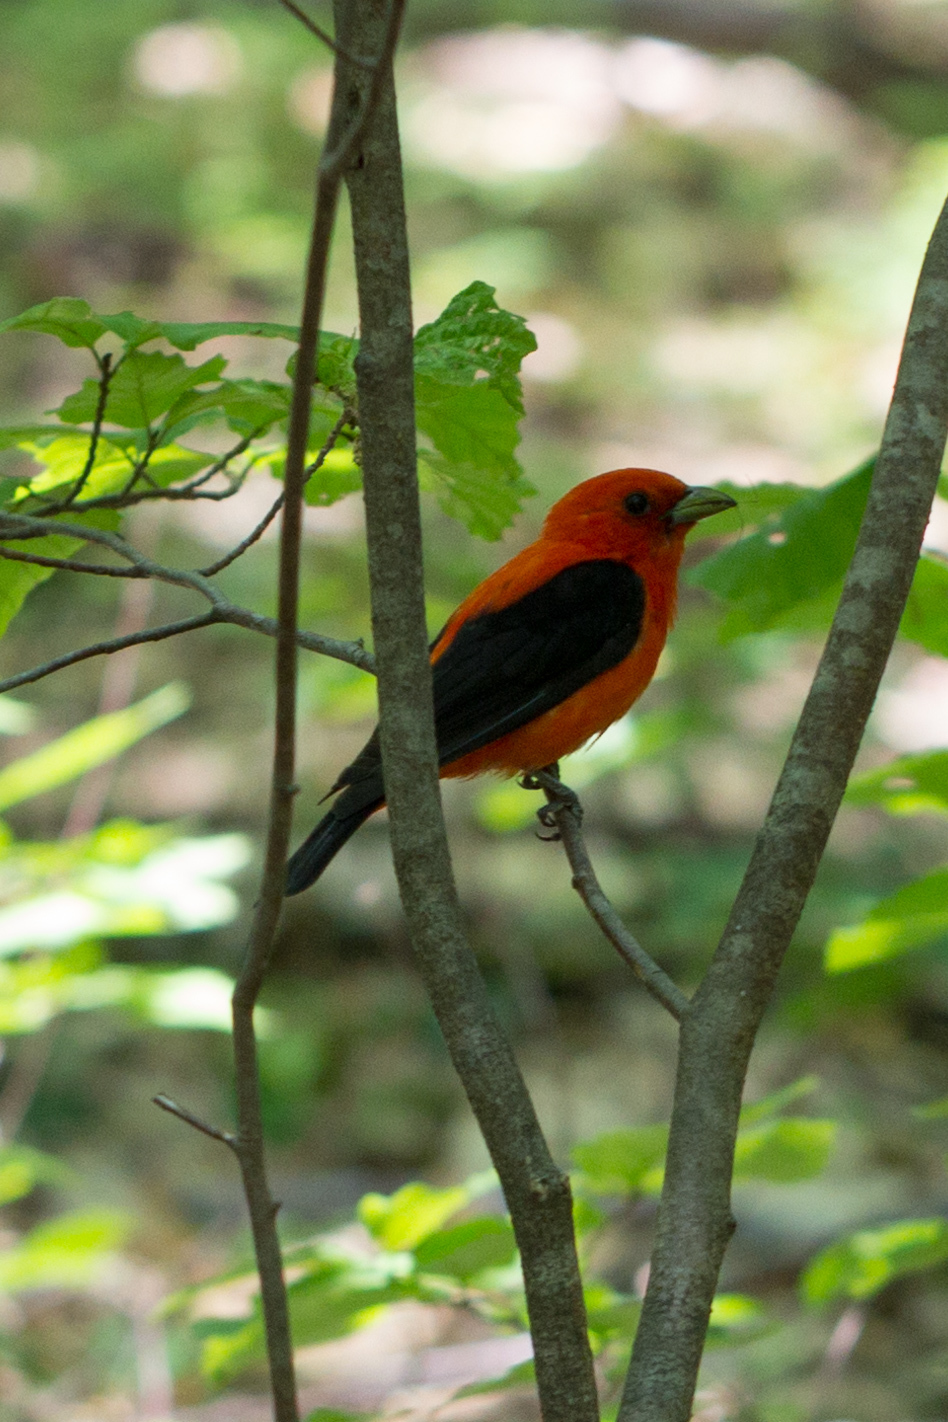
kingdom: Animalia
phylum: Chordata
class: Aves
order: Passeriformes
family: Cardinalidae
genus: Piranga
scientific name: Piranga olivacea
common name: Scarlet tanager
